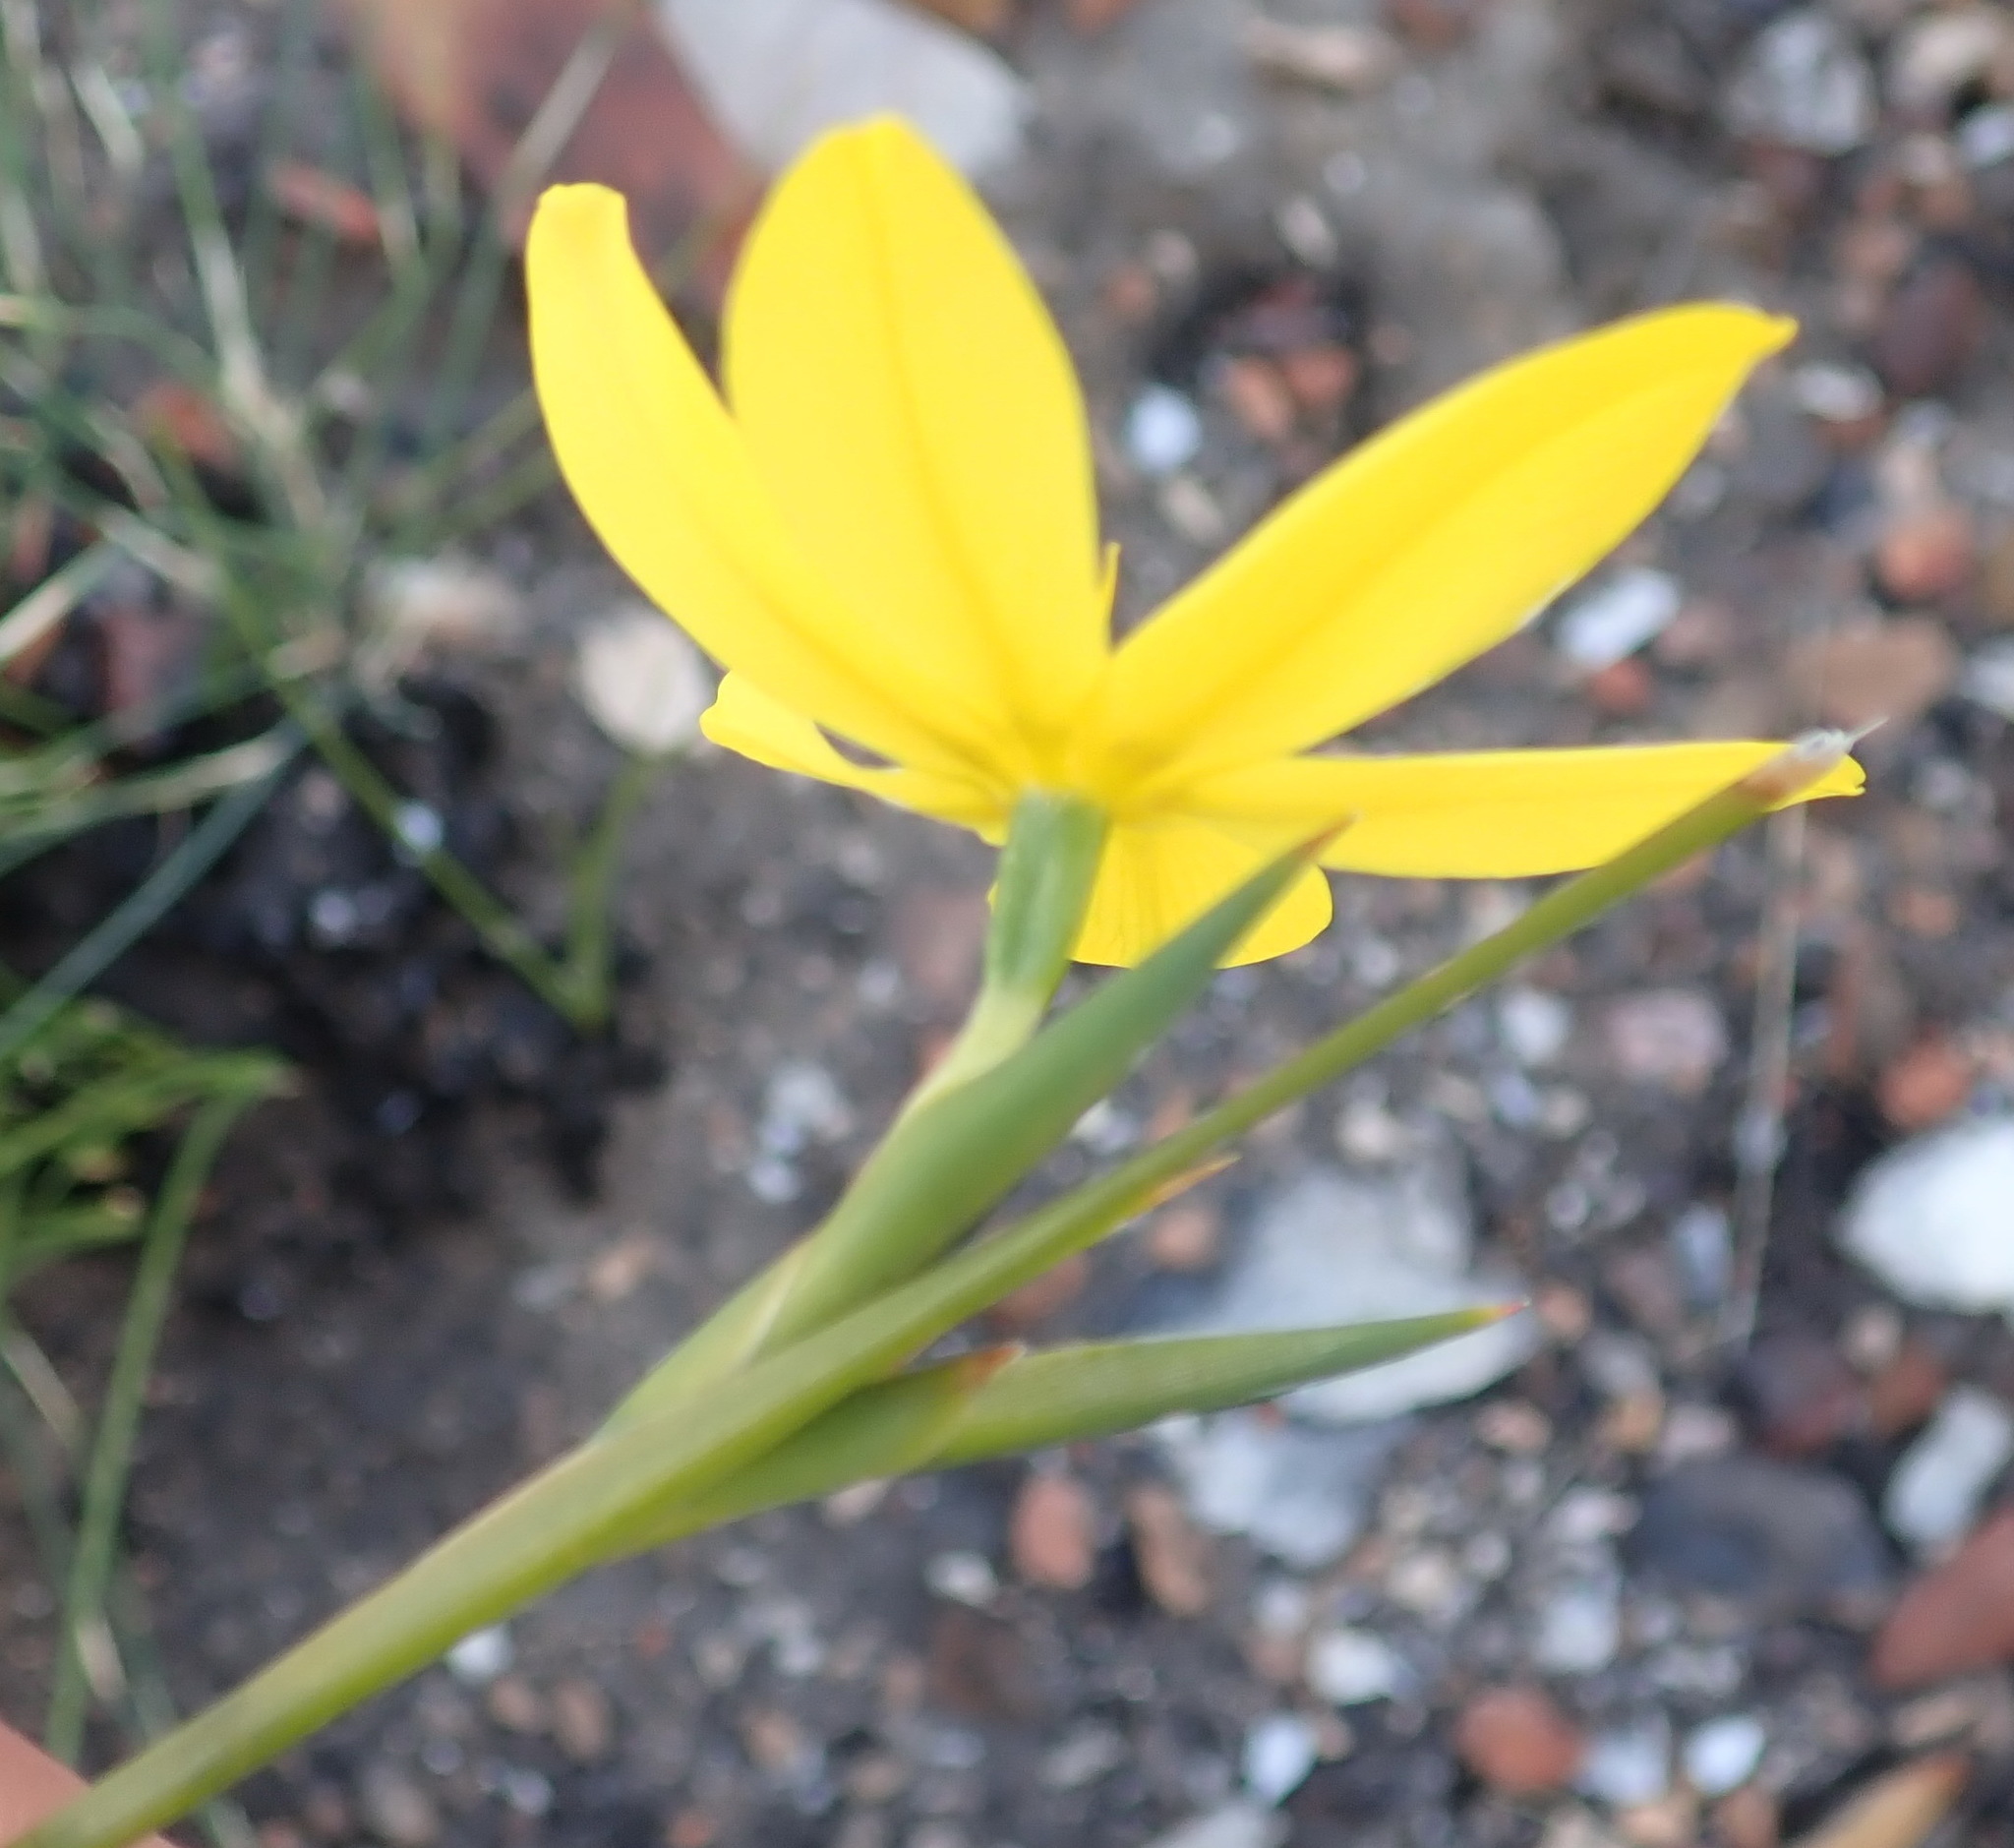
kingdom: Plantae
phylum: Tracheophyta
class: Liliopsida
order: Asparagales
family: Iridaceae
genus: Bobartia
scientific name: Bobartia aphylla
